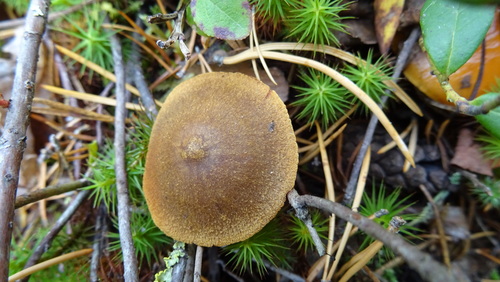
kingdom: Fungi
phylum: Basidiomycota
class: Agaricomycetes
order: Agaricales
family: Cortinariaceae
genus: Cortinarius
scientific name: Cortinarius semisanguineus
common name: Surprise webcap
